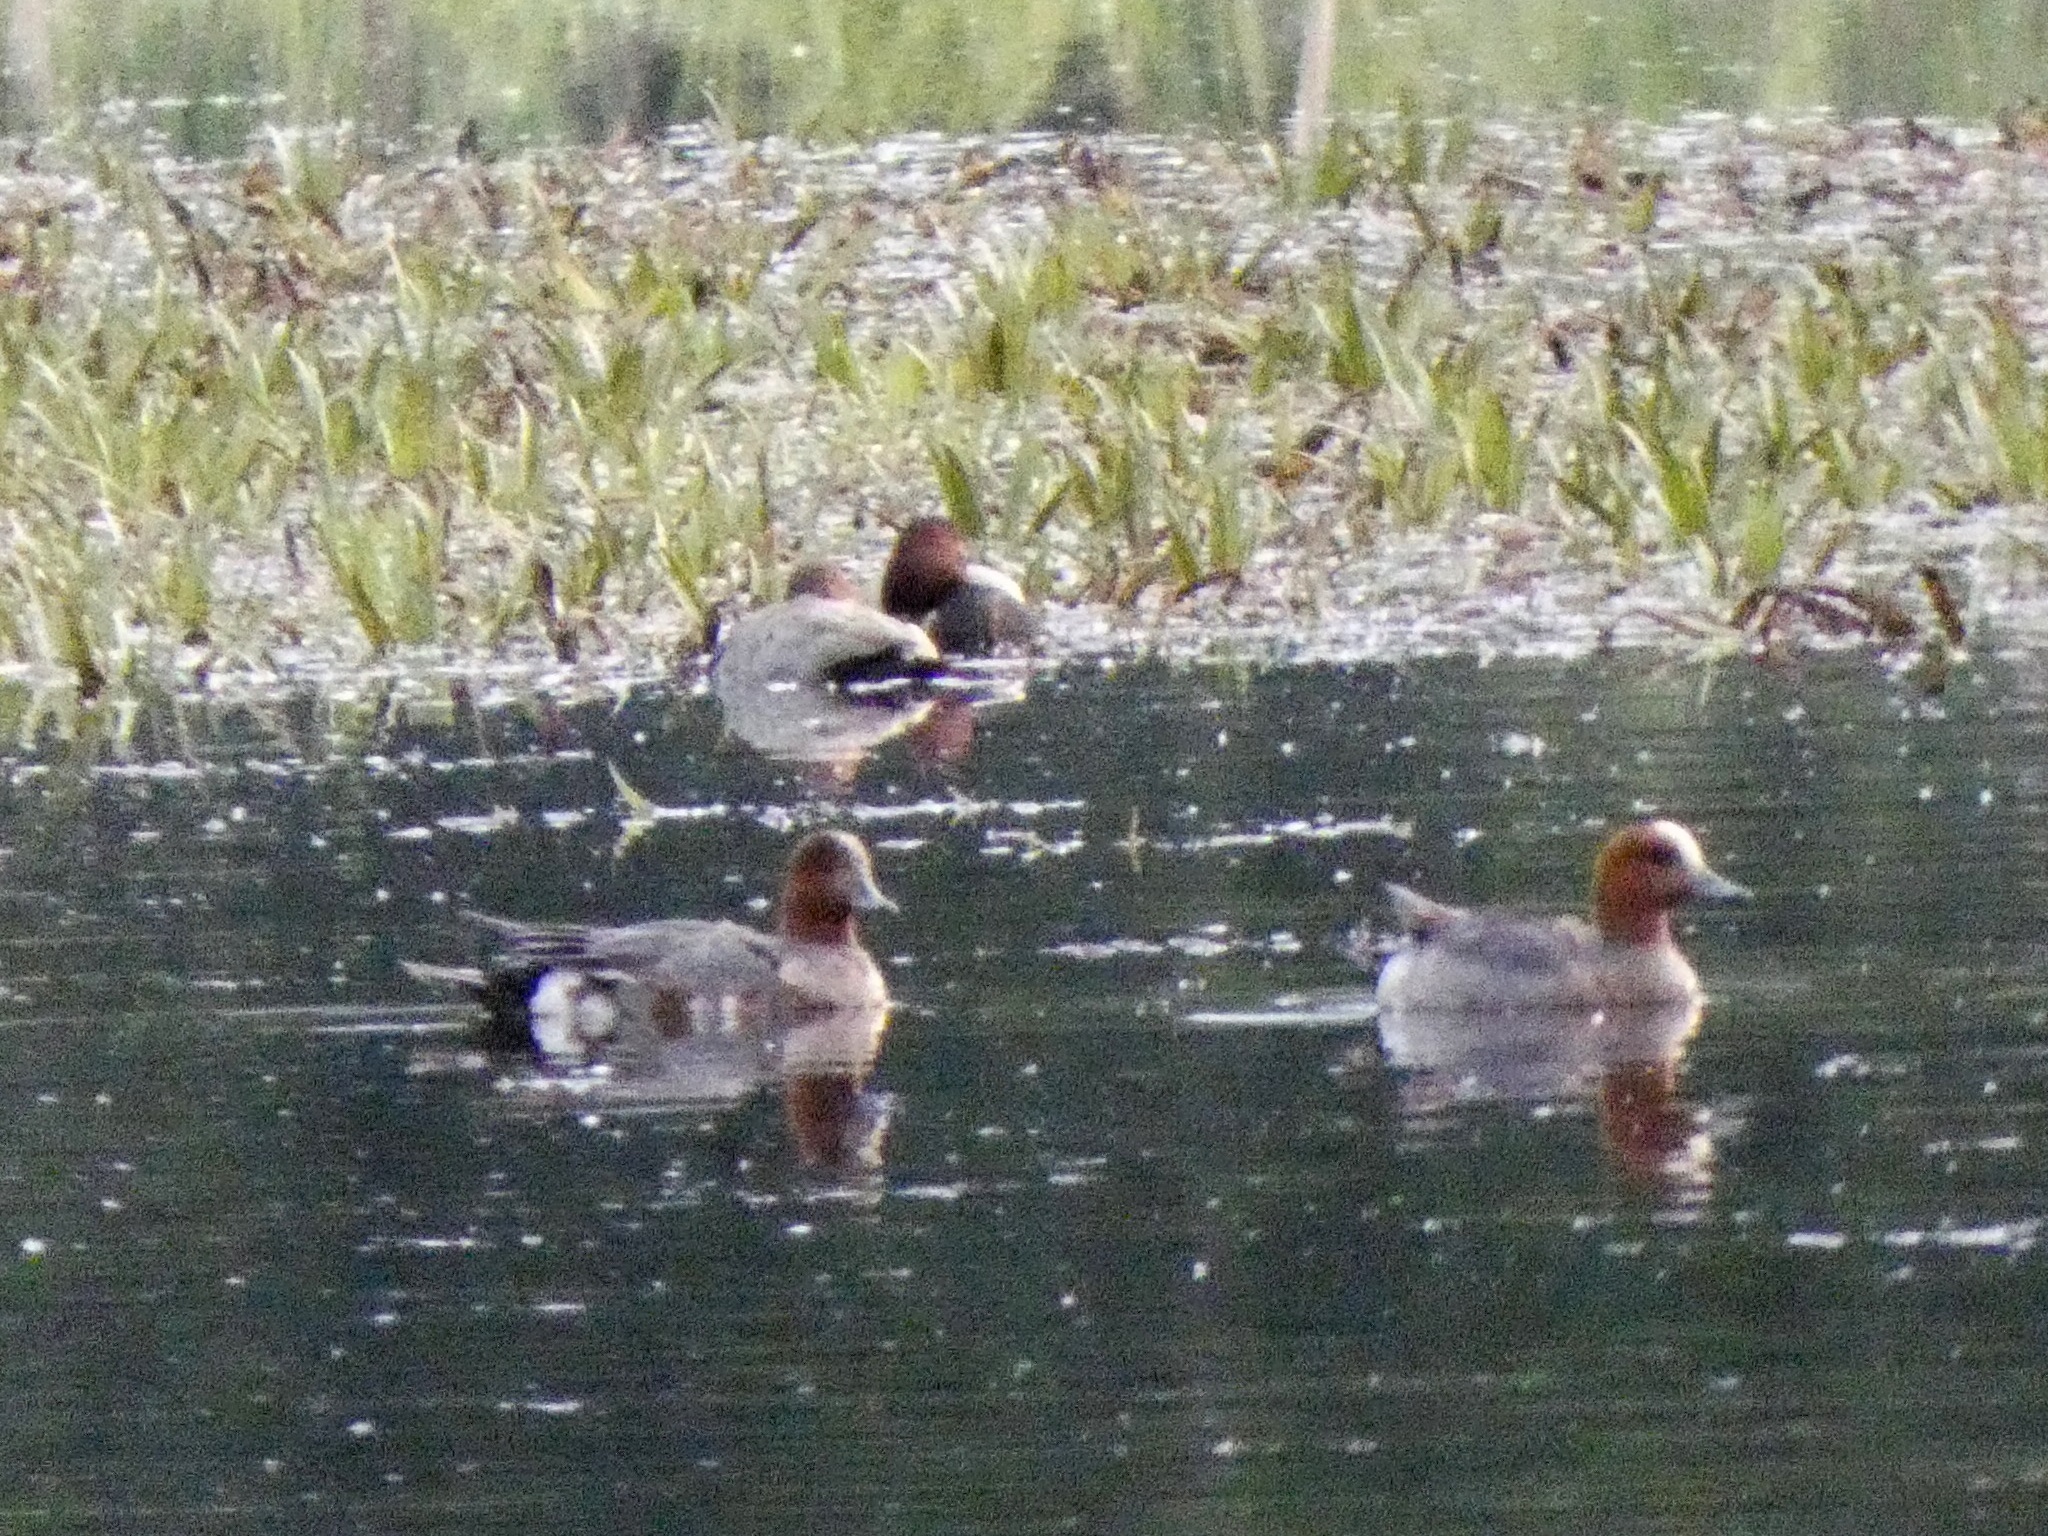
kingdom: Animalia
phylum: Chordata
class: Aves
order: Anseriformes
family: Anatidae
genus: Mareca
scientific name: Mareca penelope
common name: Eurasian wigeon
